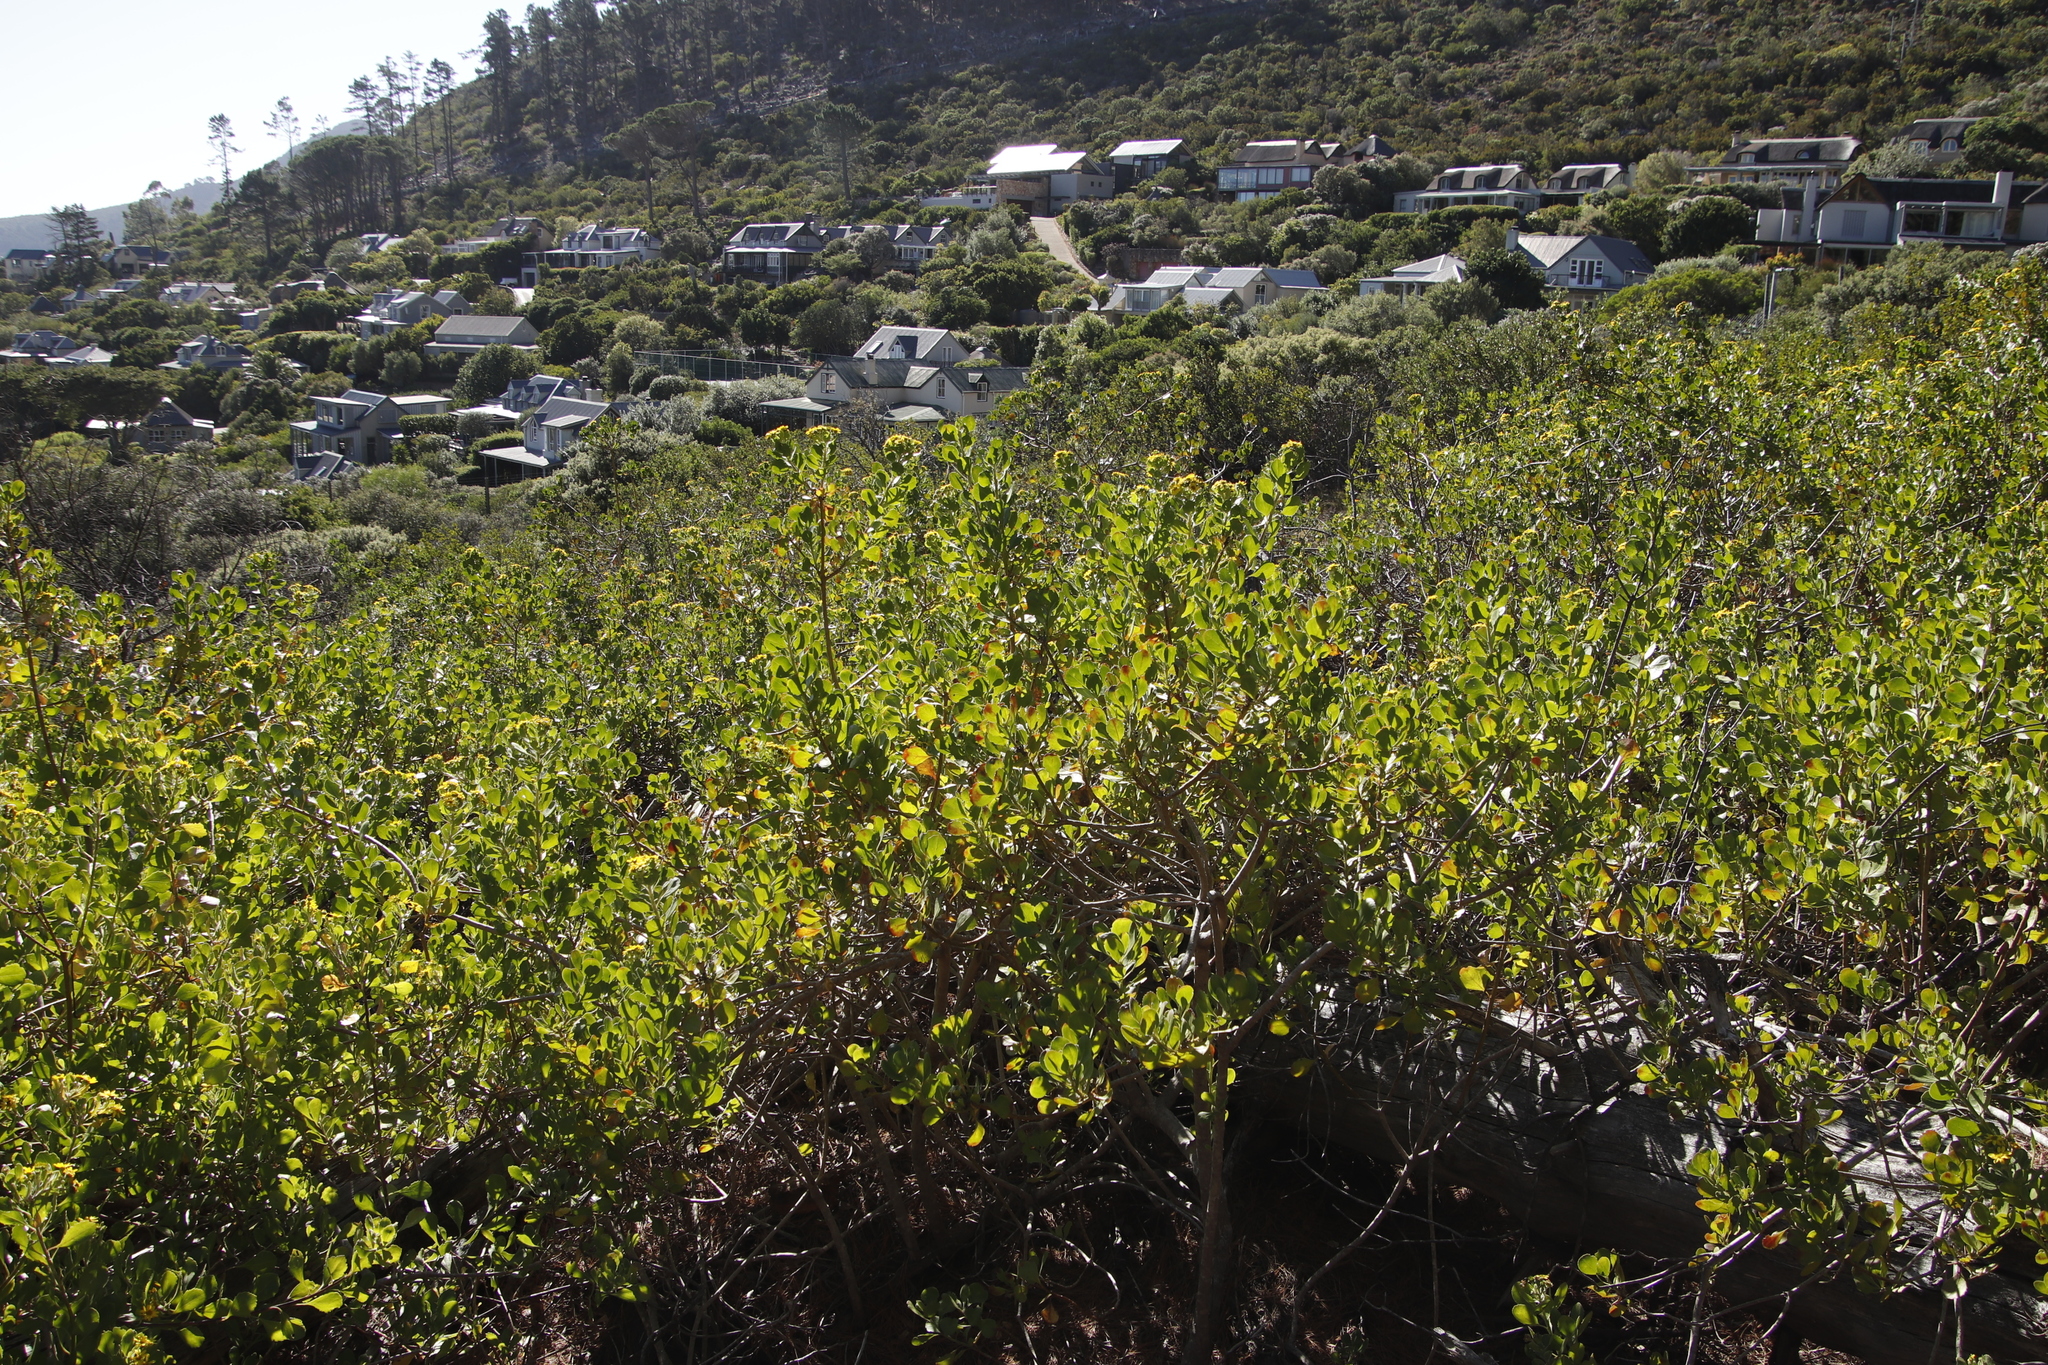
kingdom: Plantae
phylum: Tracheophyta
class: Magnoliopsida
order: Asterales
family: Asteraceae
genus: Osteospermum
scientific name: Osteospermum moniliferum
